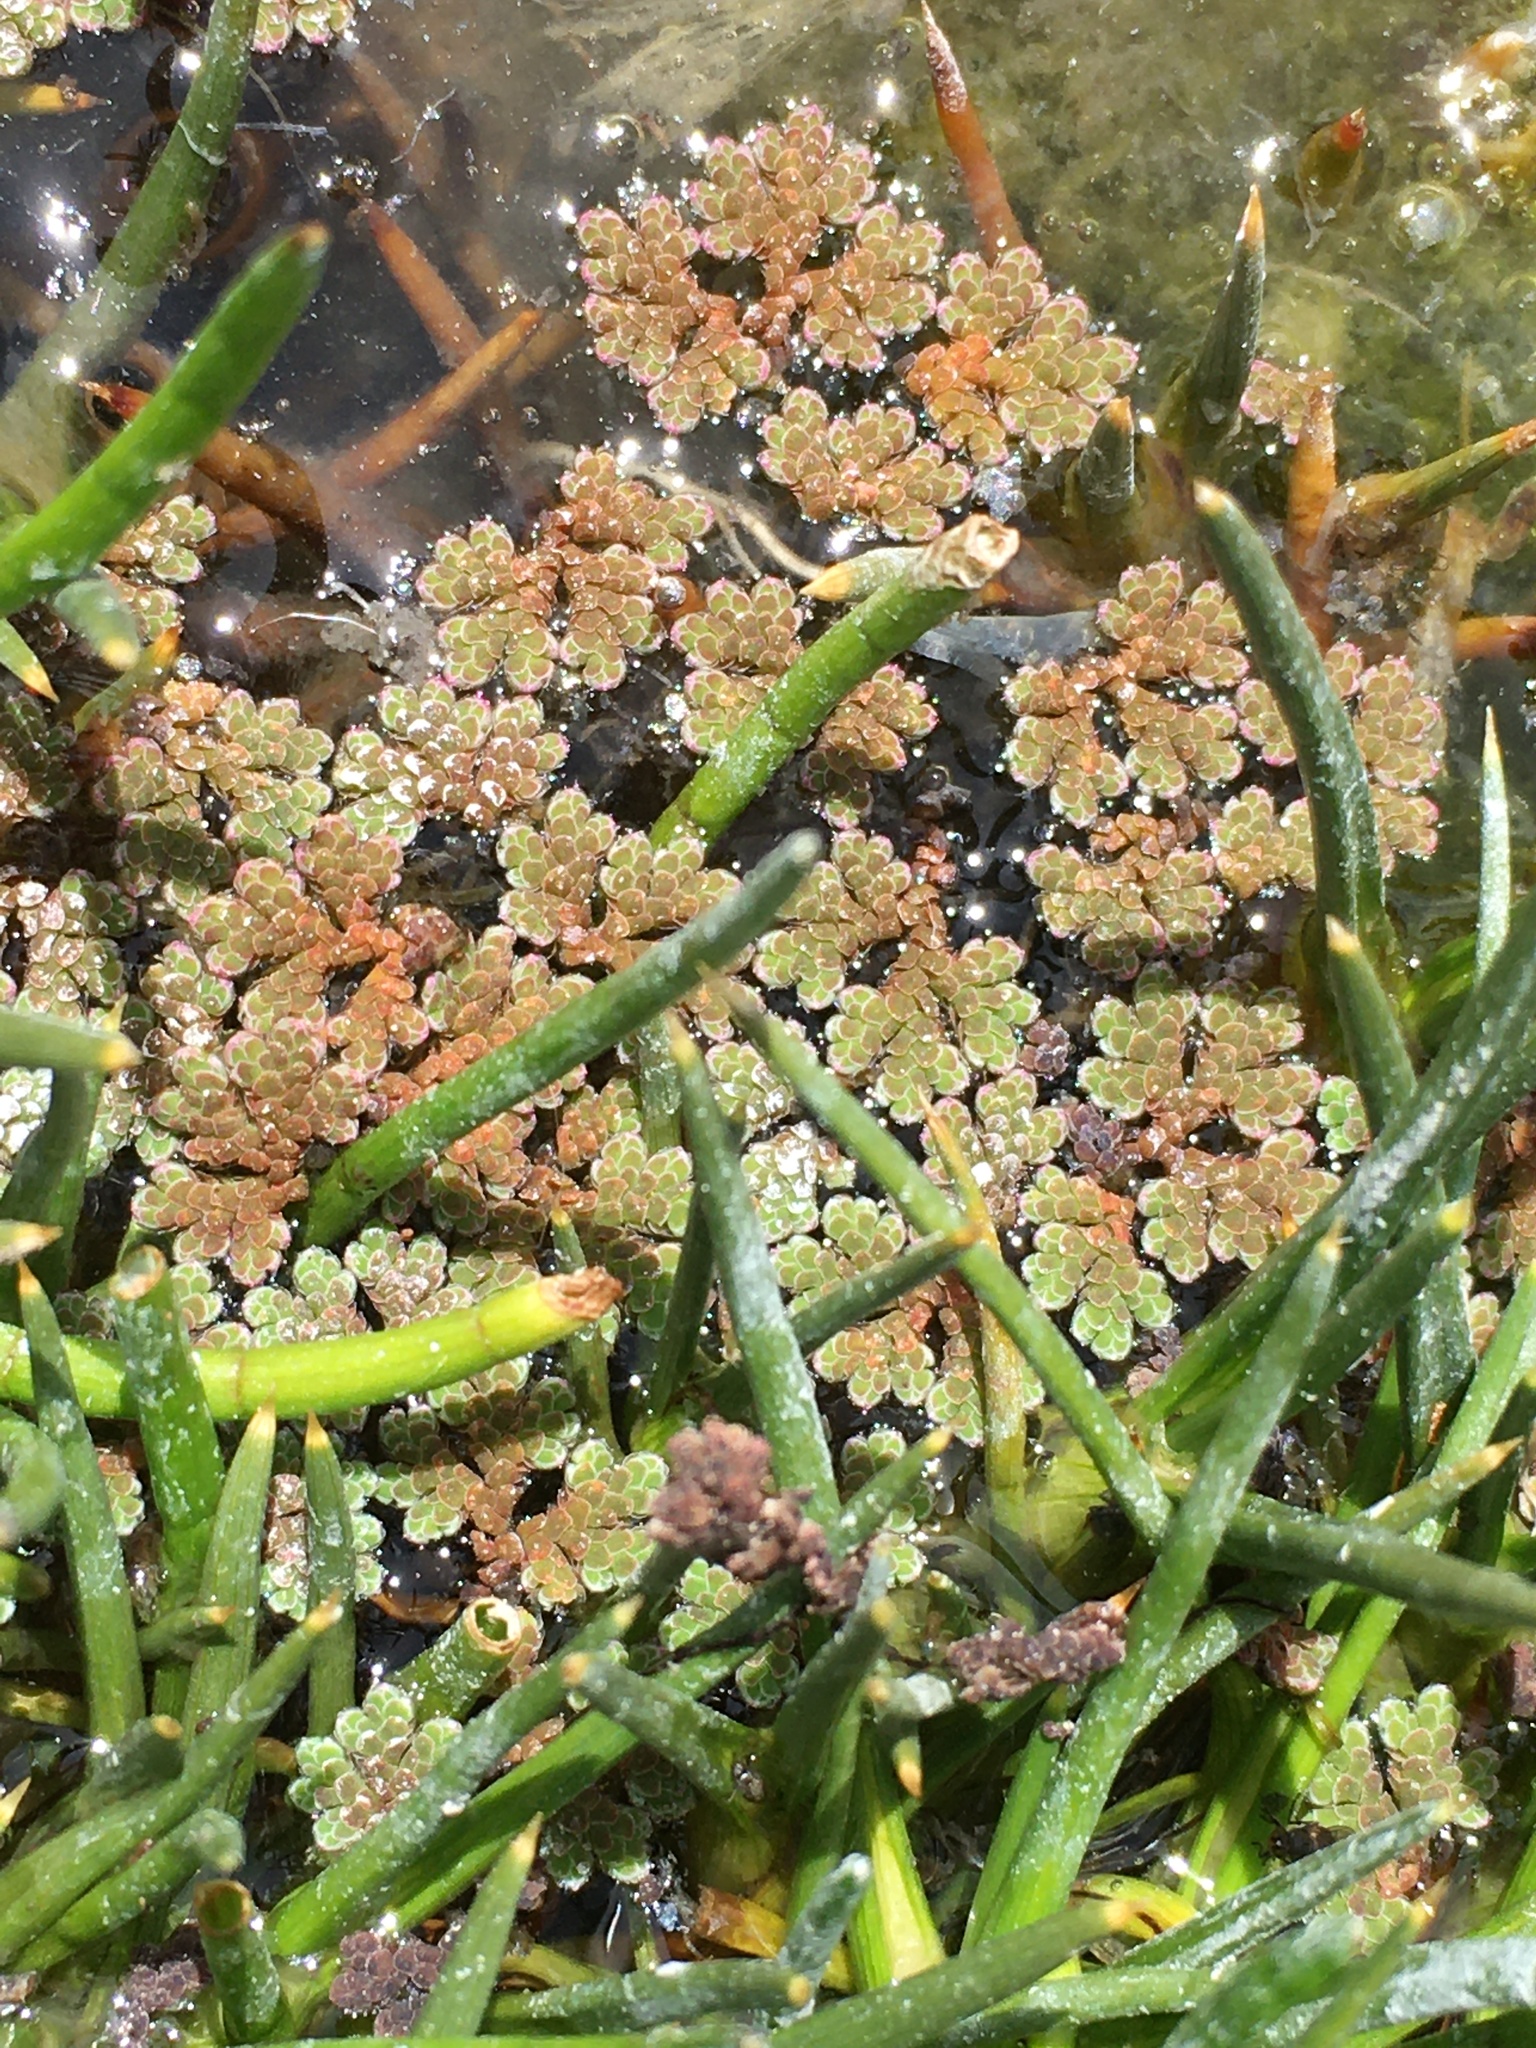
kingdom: Plantae
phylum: Tracheophyta
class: Polypodiopsida
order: Salviniales
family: Salviniaceae
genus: Azolla
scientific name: Azolla filiculoides
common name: Water fern
